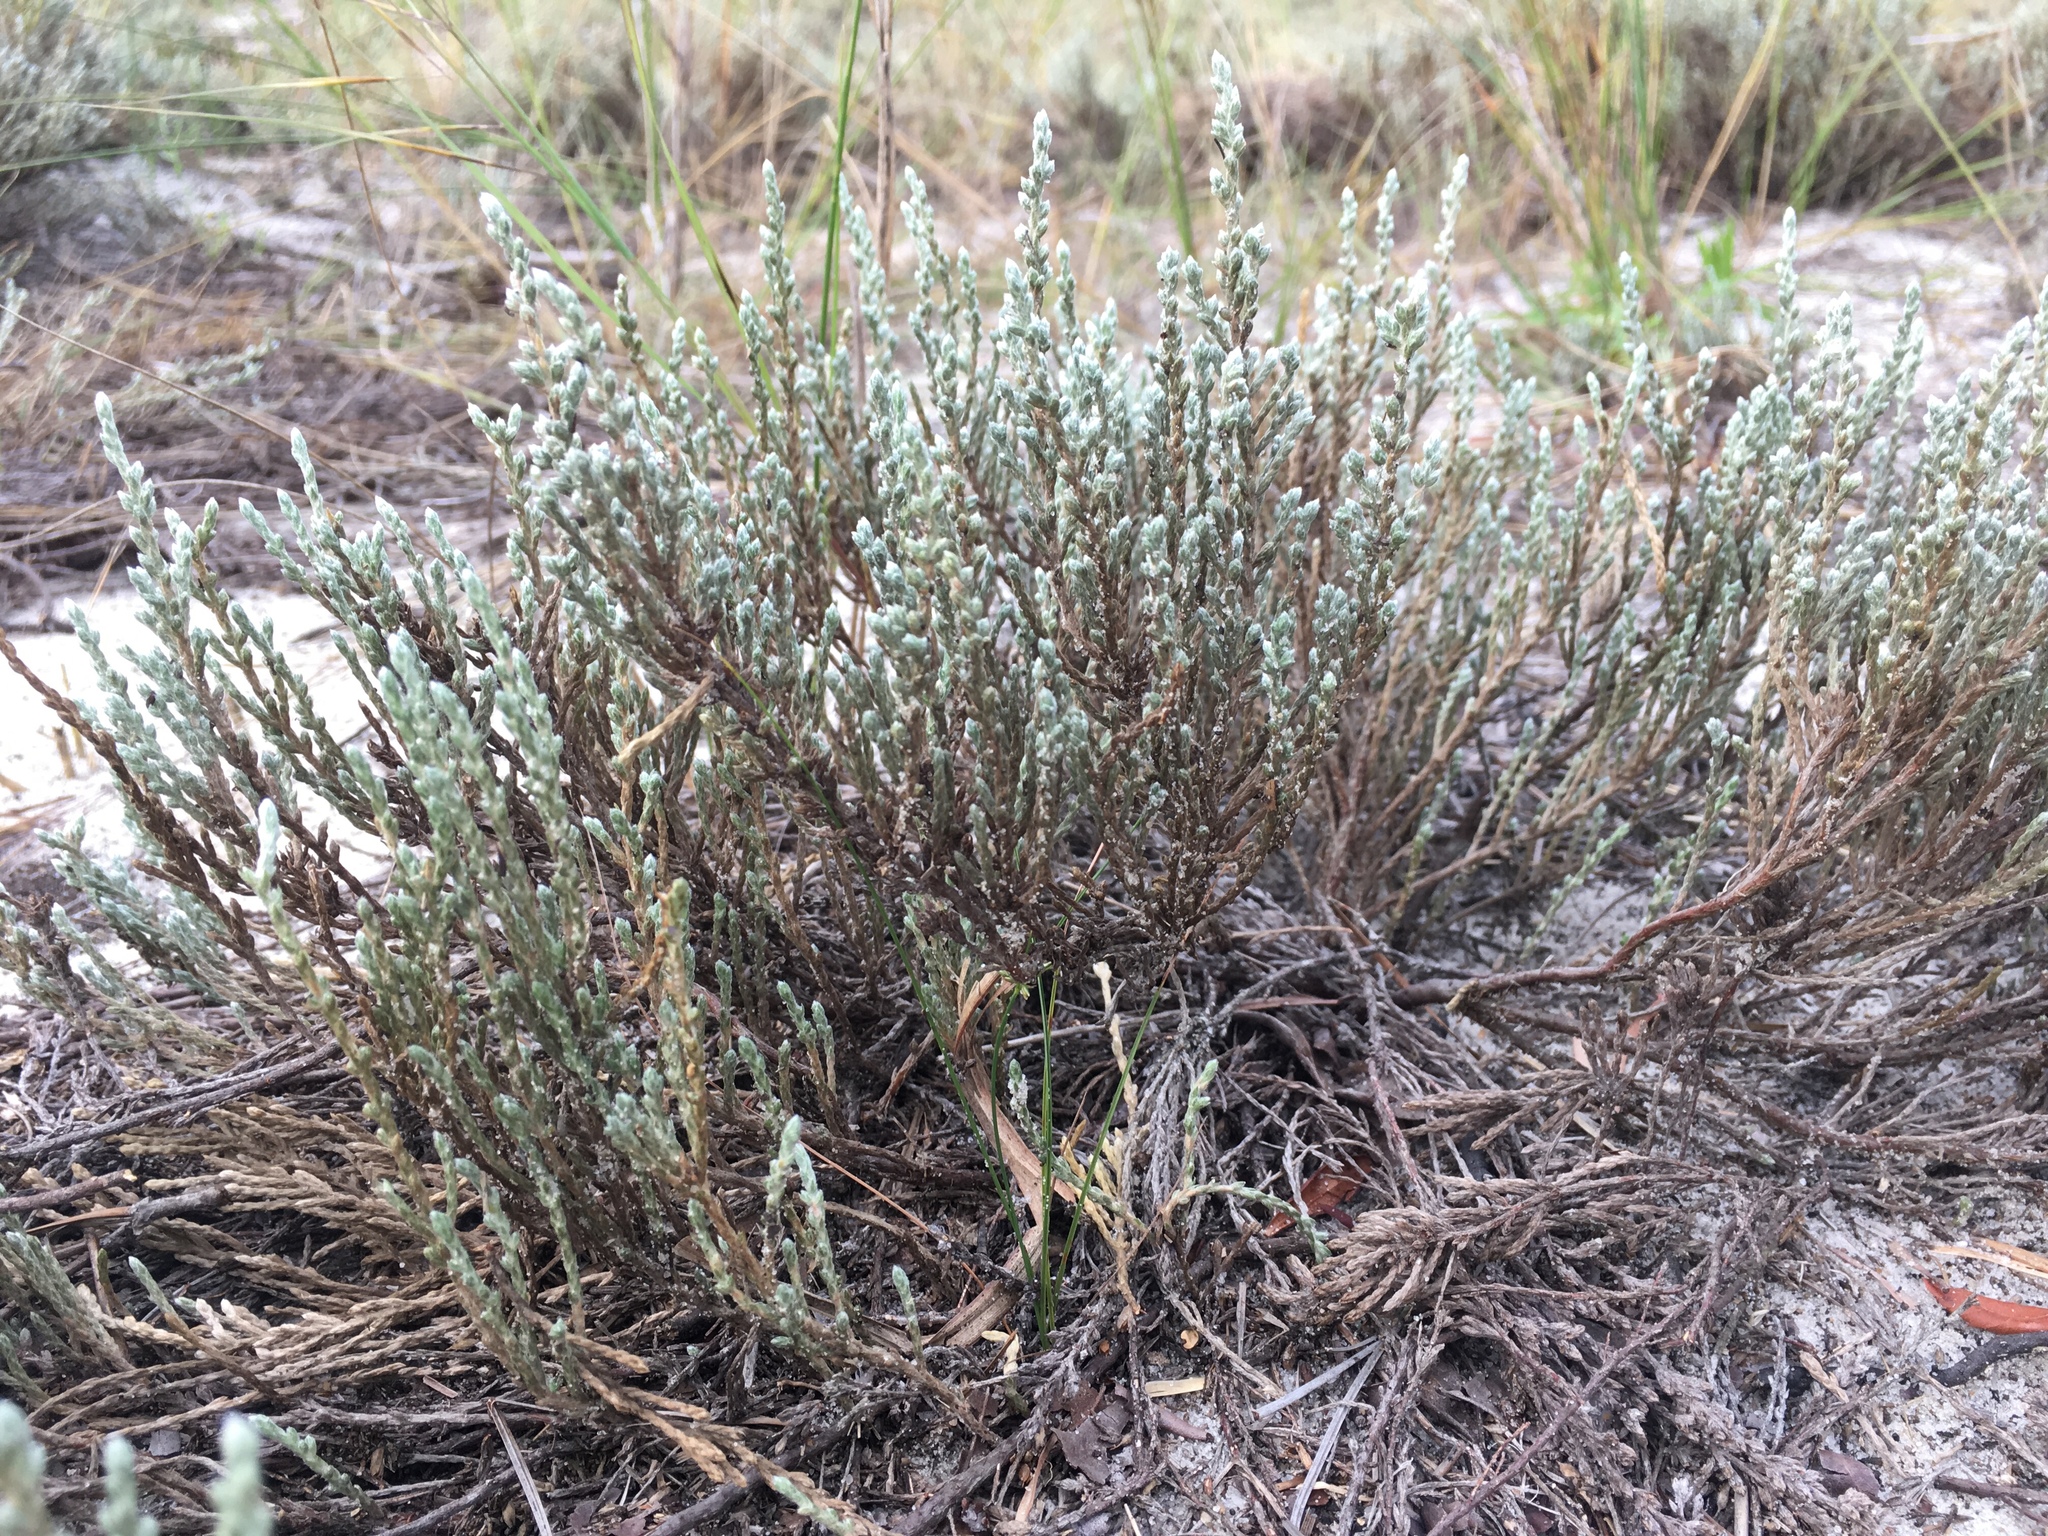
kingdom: Plantae
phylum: Tracheophyta
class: Magnoliopsida
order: Malvales
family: Cistaceae
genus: Hudsonia
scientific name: Hudsonia tomentosa
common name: Beach-heath
